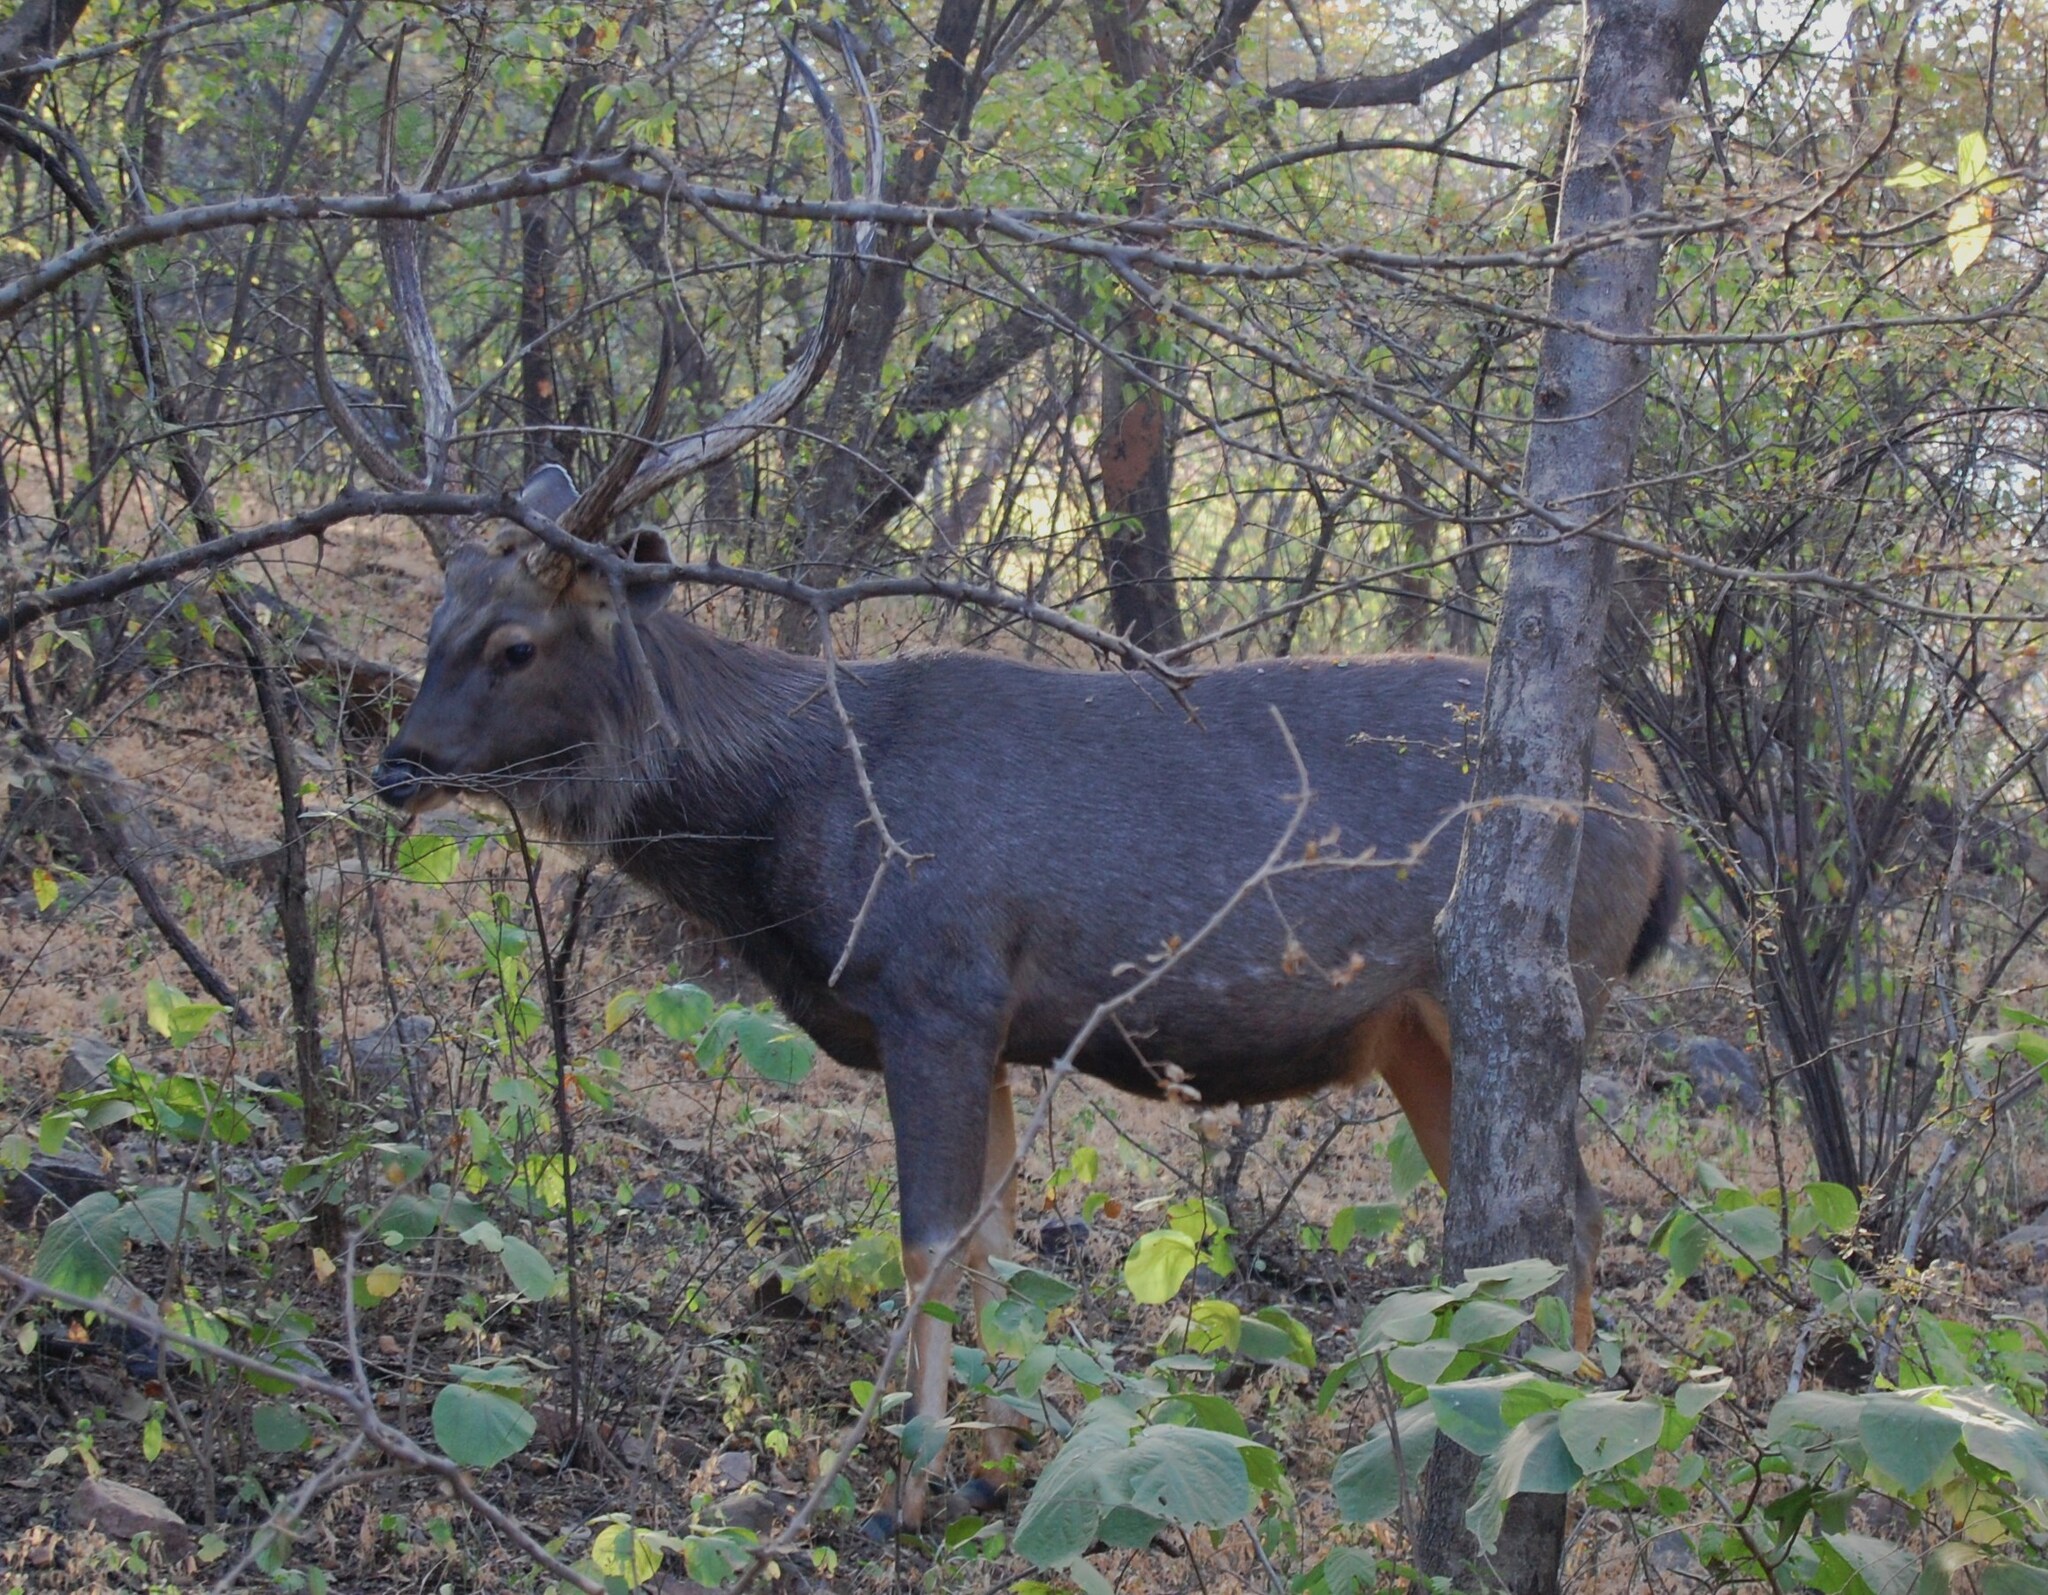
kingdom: Animalia
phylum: Chordata
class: Mammalia
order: Artiodactyla
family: Cervidae
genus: Rusa
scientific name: Rusa unicolor
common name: Sambar
